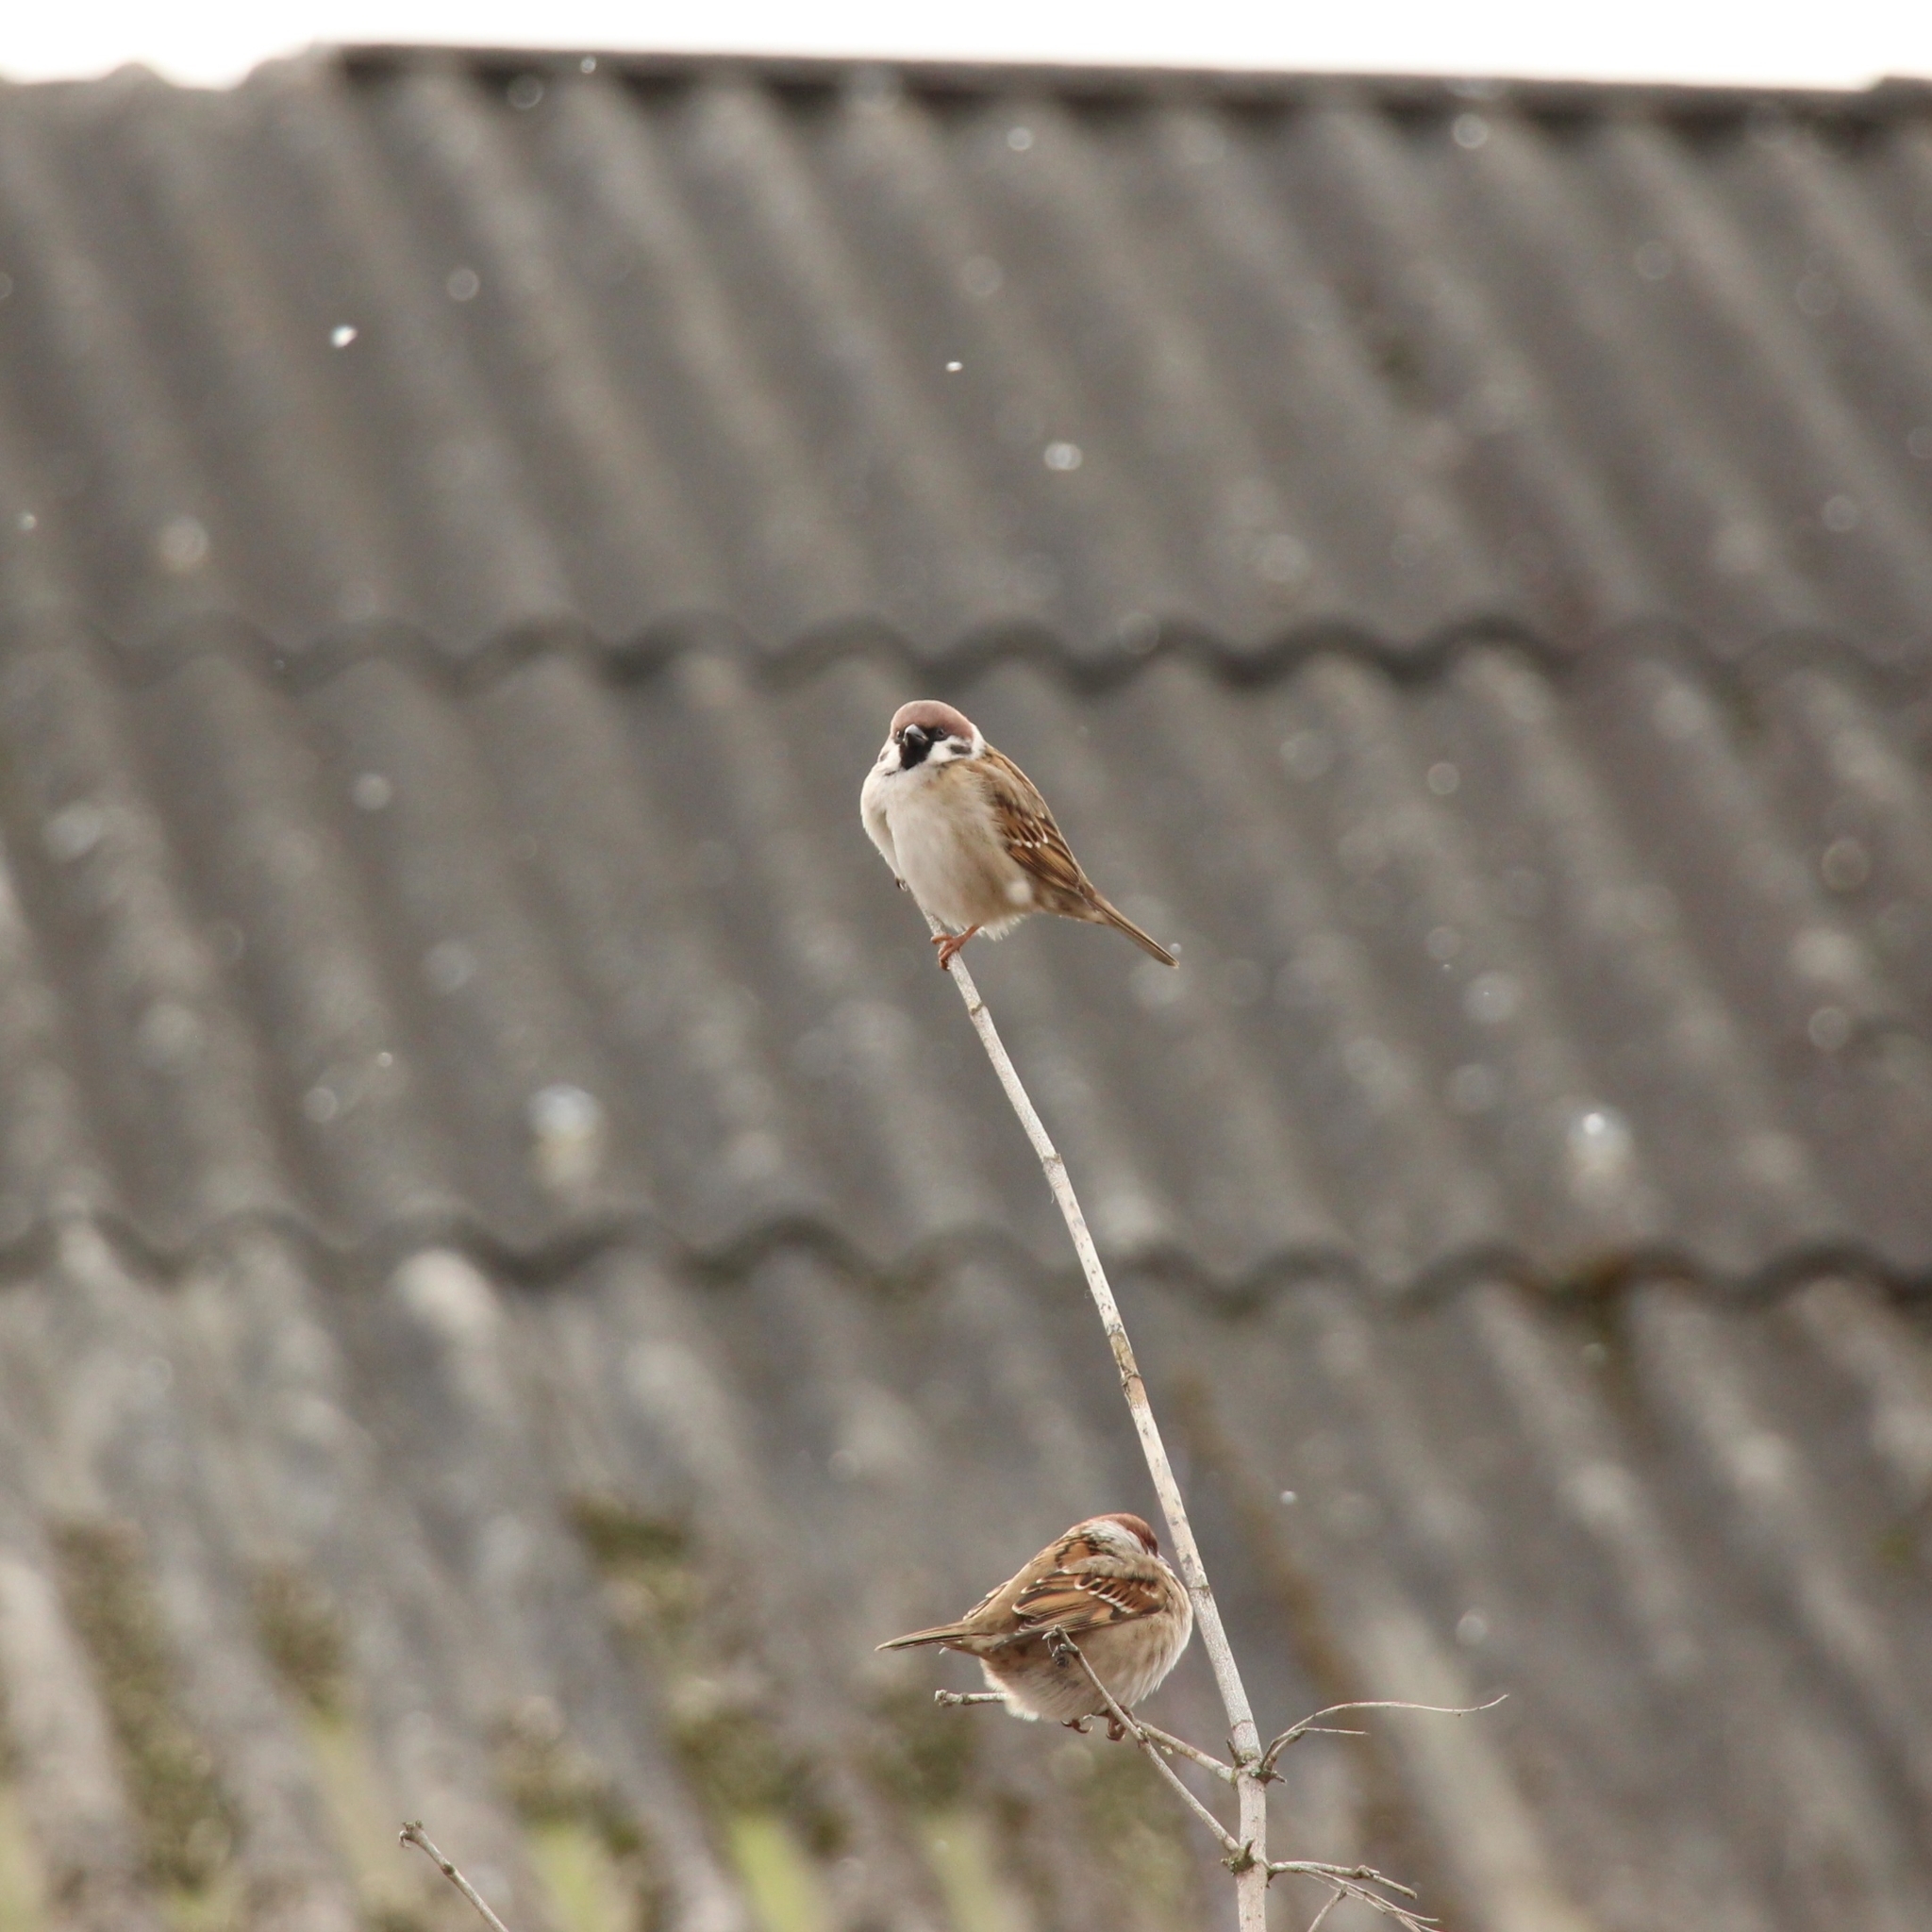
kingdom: Animalia
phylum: Chordata
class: Aves
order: Passeriformes
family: Passeridae
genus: Passer
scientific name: Passer montanus
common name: Eurasian tree sparrow
